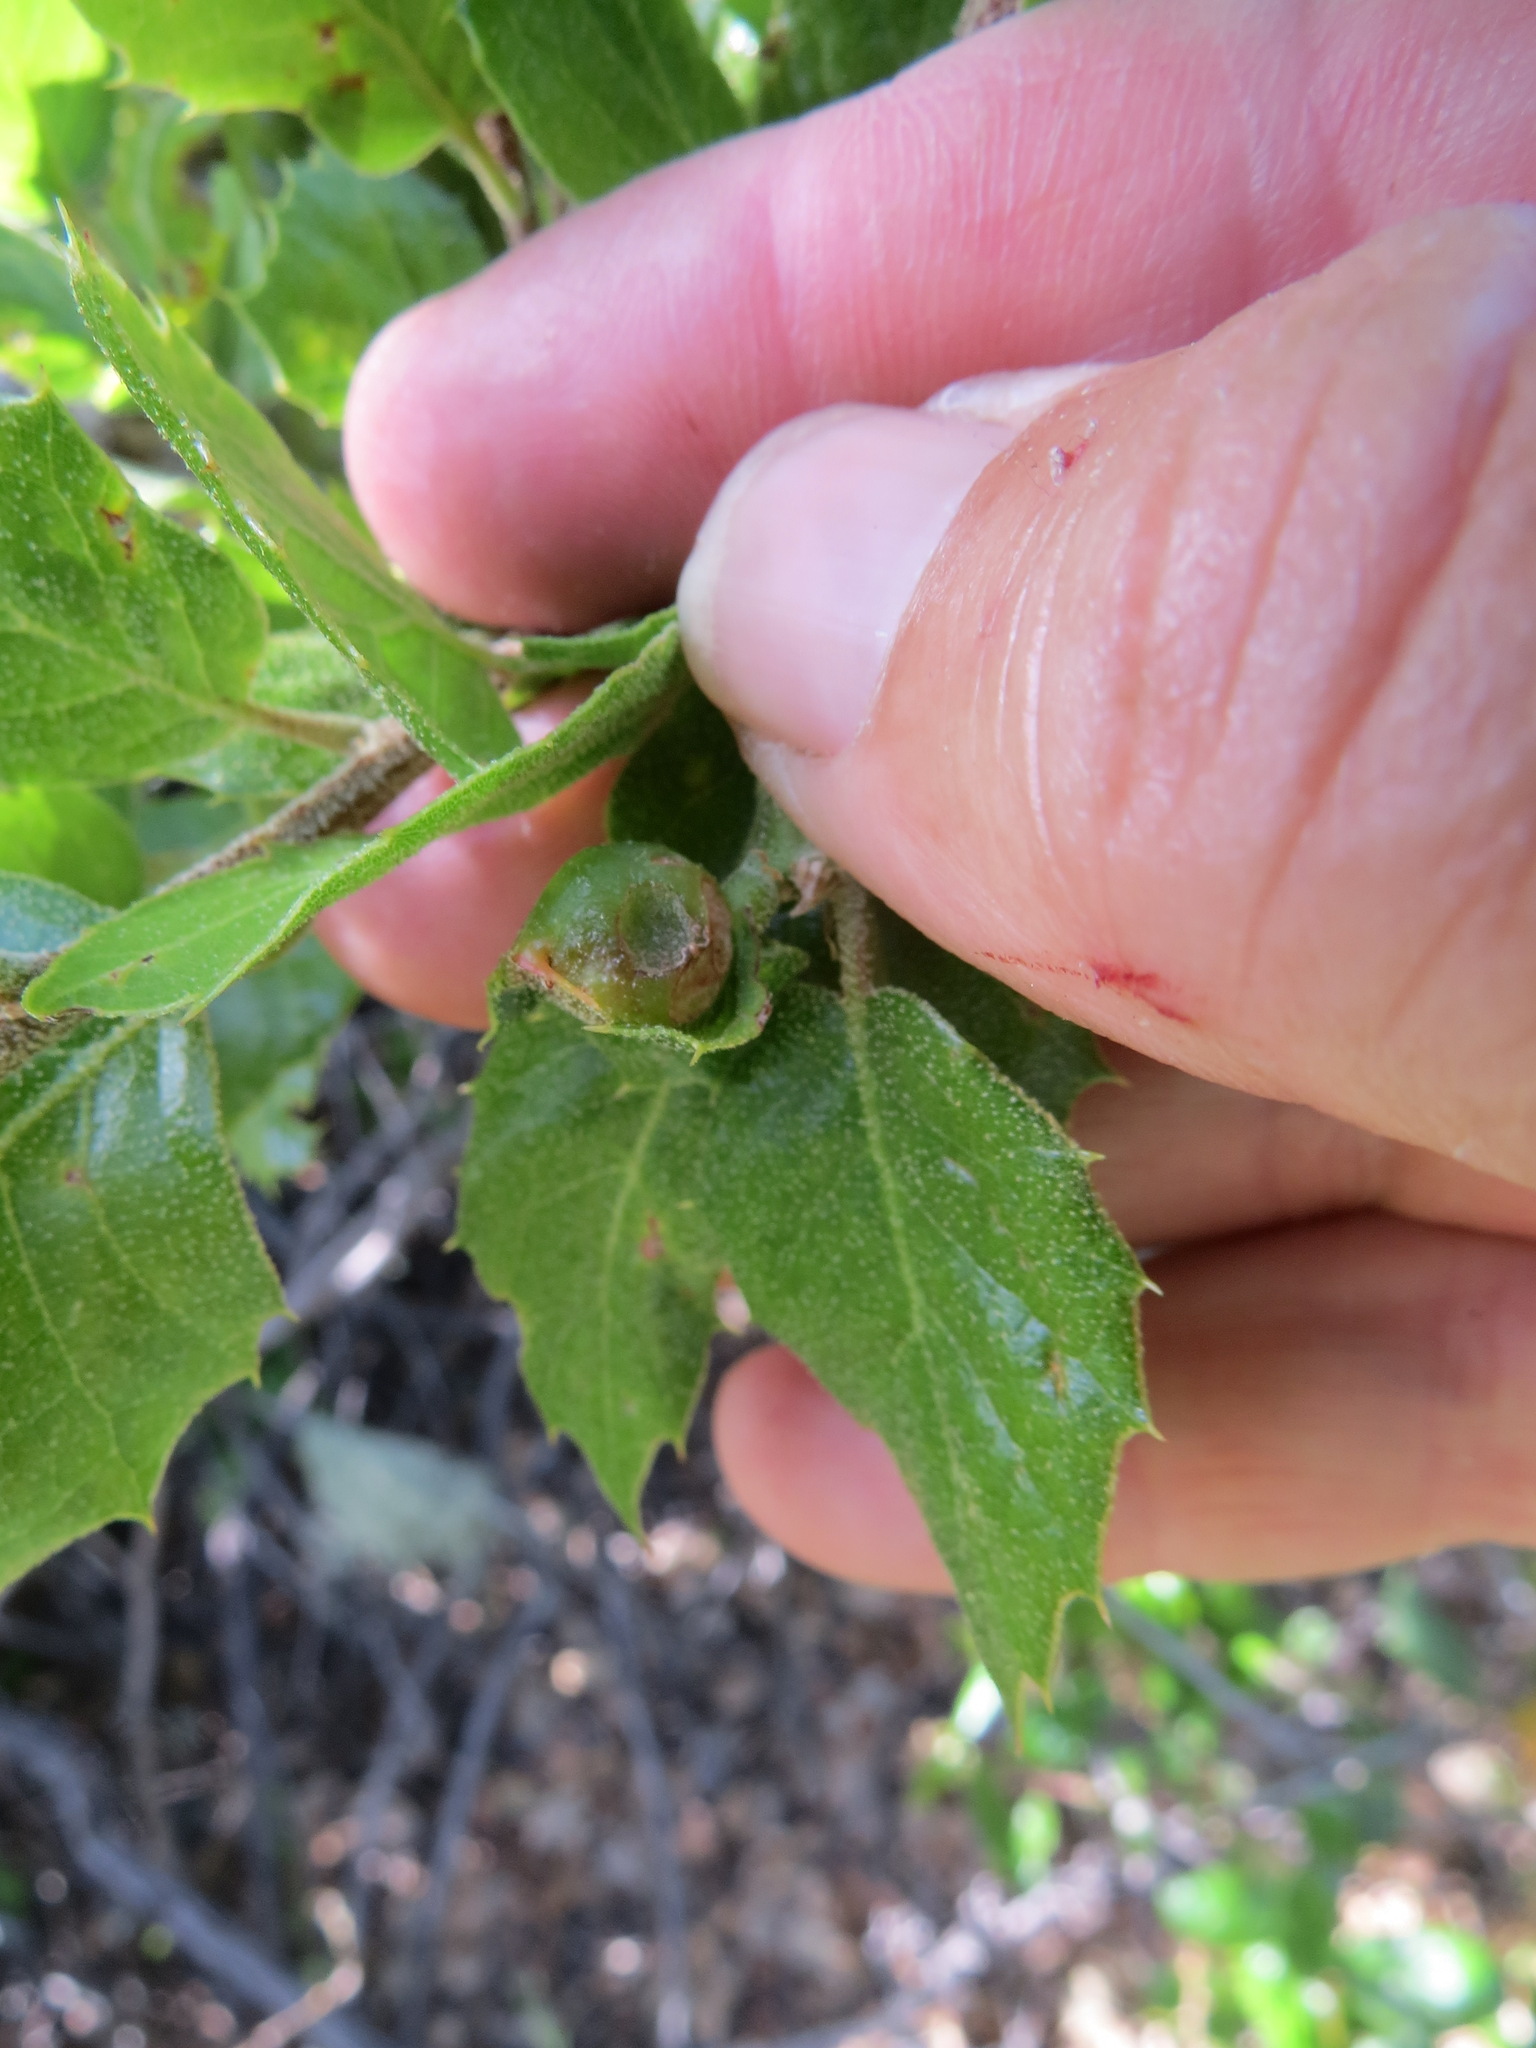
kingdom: Animalia
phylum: Arthropoda
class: Insecta
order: Hymenoptera
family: Cynipidae
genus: Callirhytis
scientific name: Callirhytis
